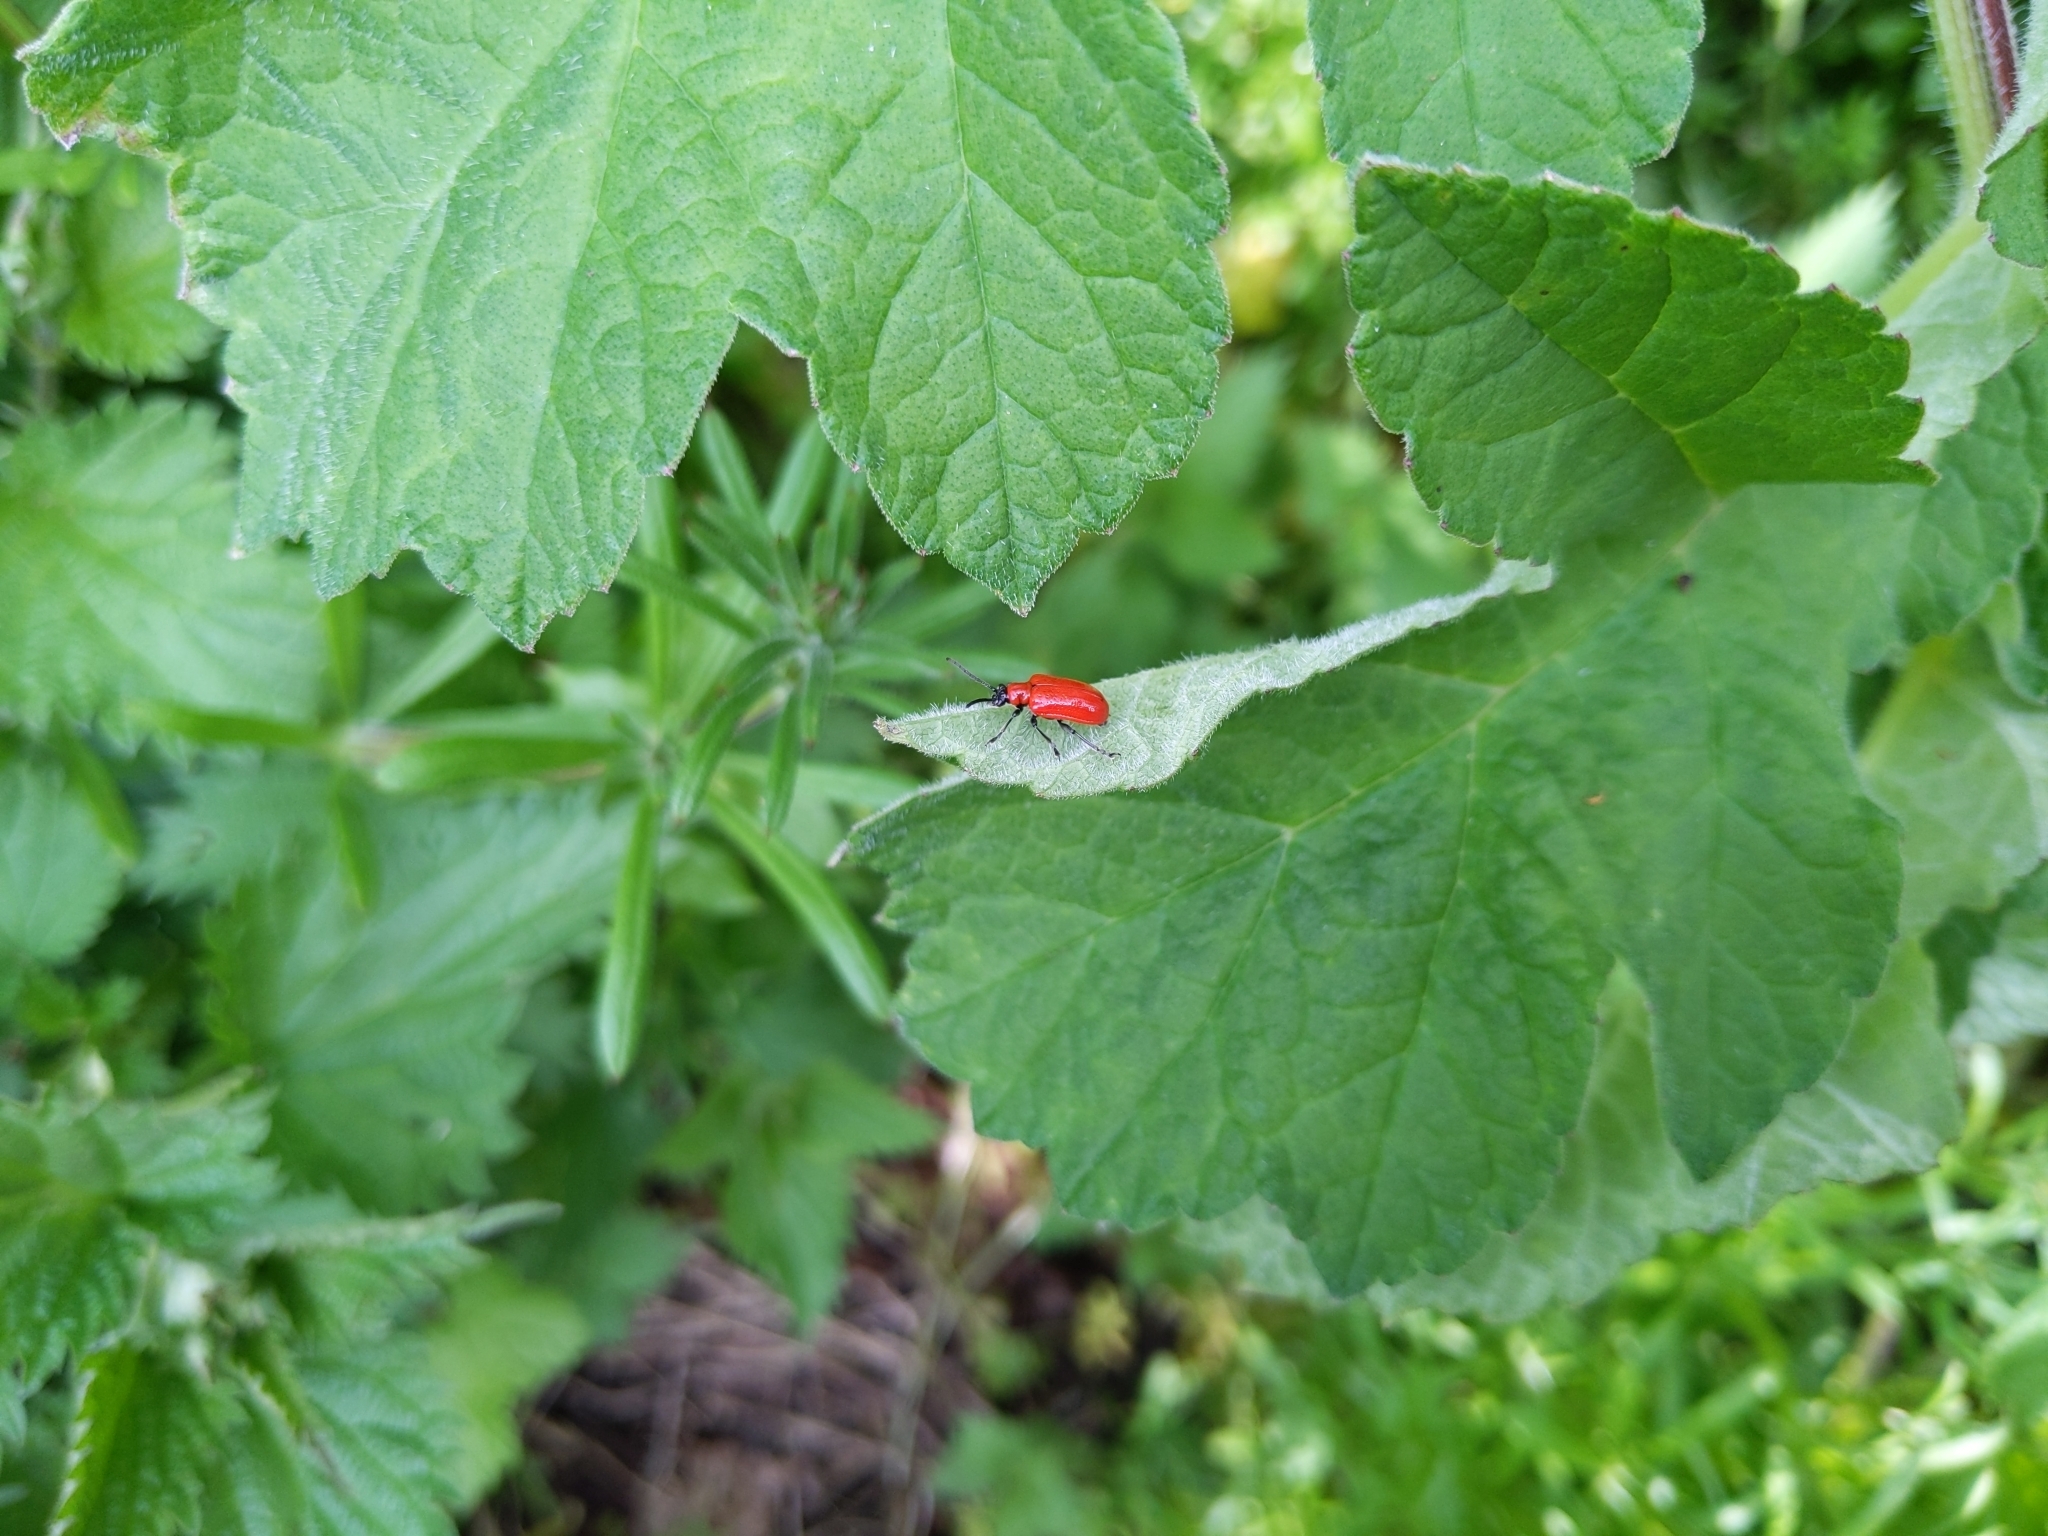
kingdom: Animalia
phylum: Arthropoda
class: Insecta
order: Coleoptera
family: Chrysomelidae
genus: Lilioceris
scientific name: Lilioceris lilii
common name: Lily beetle
